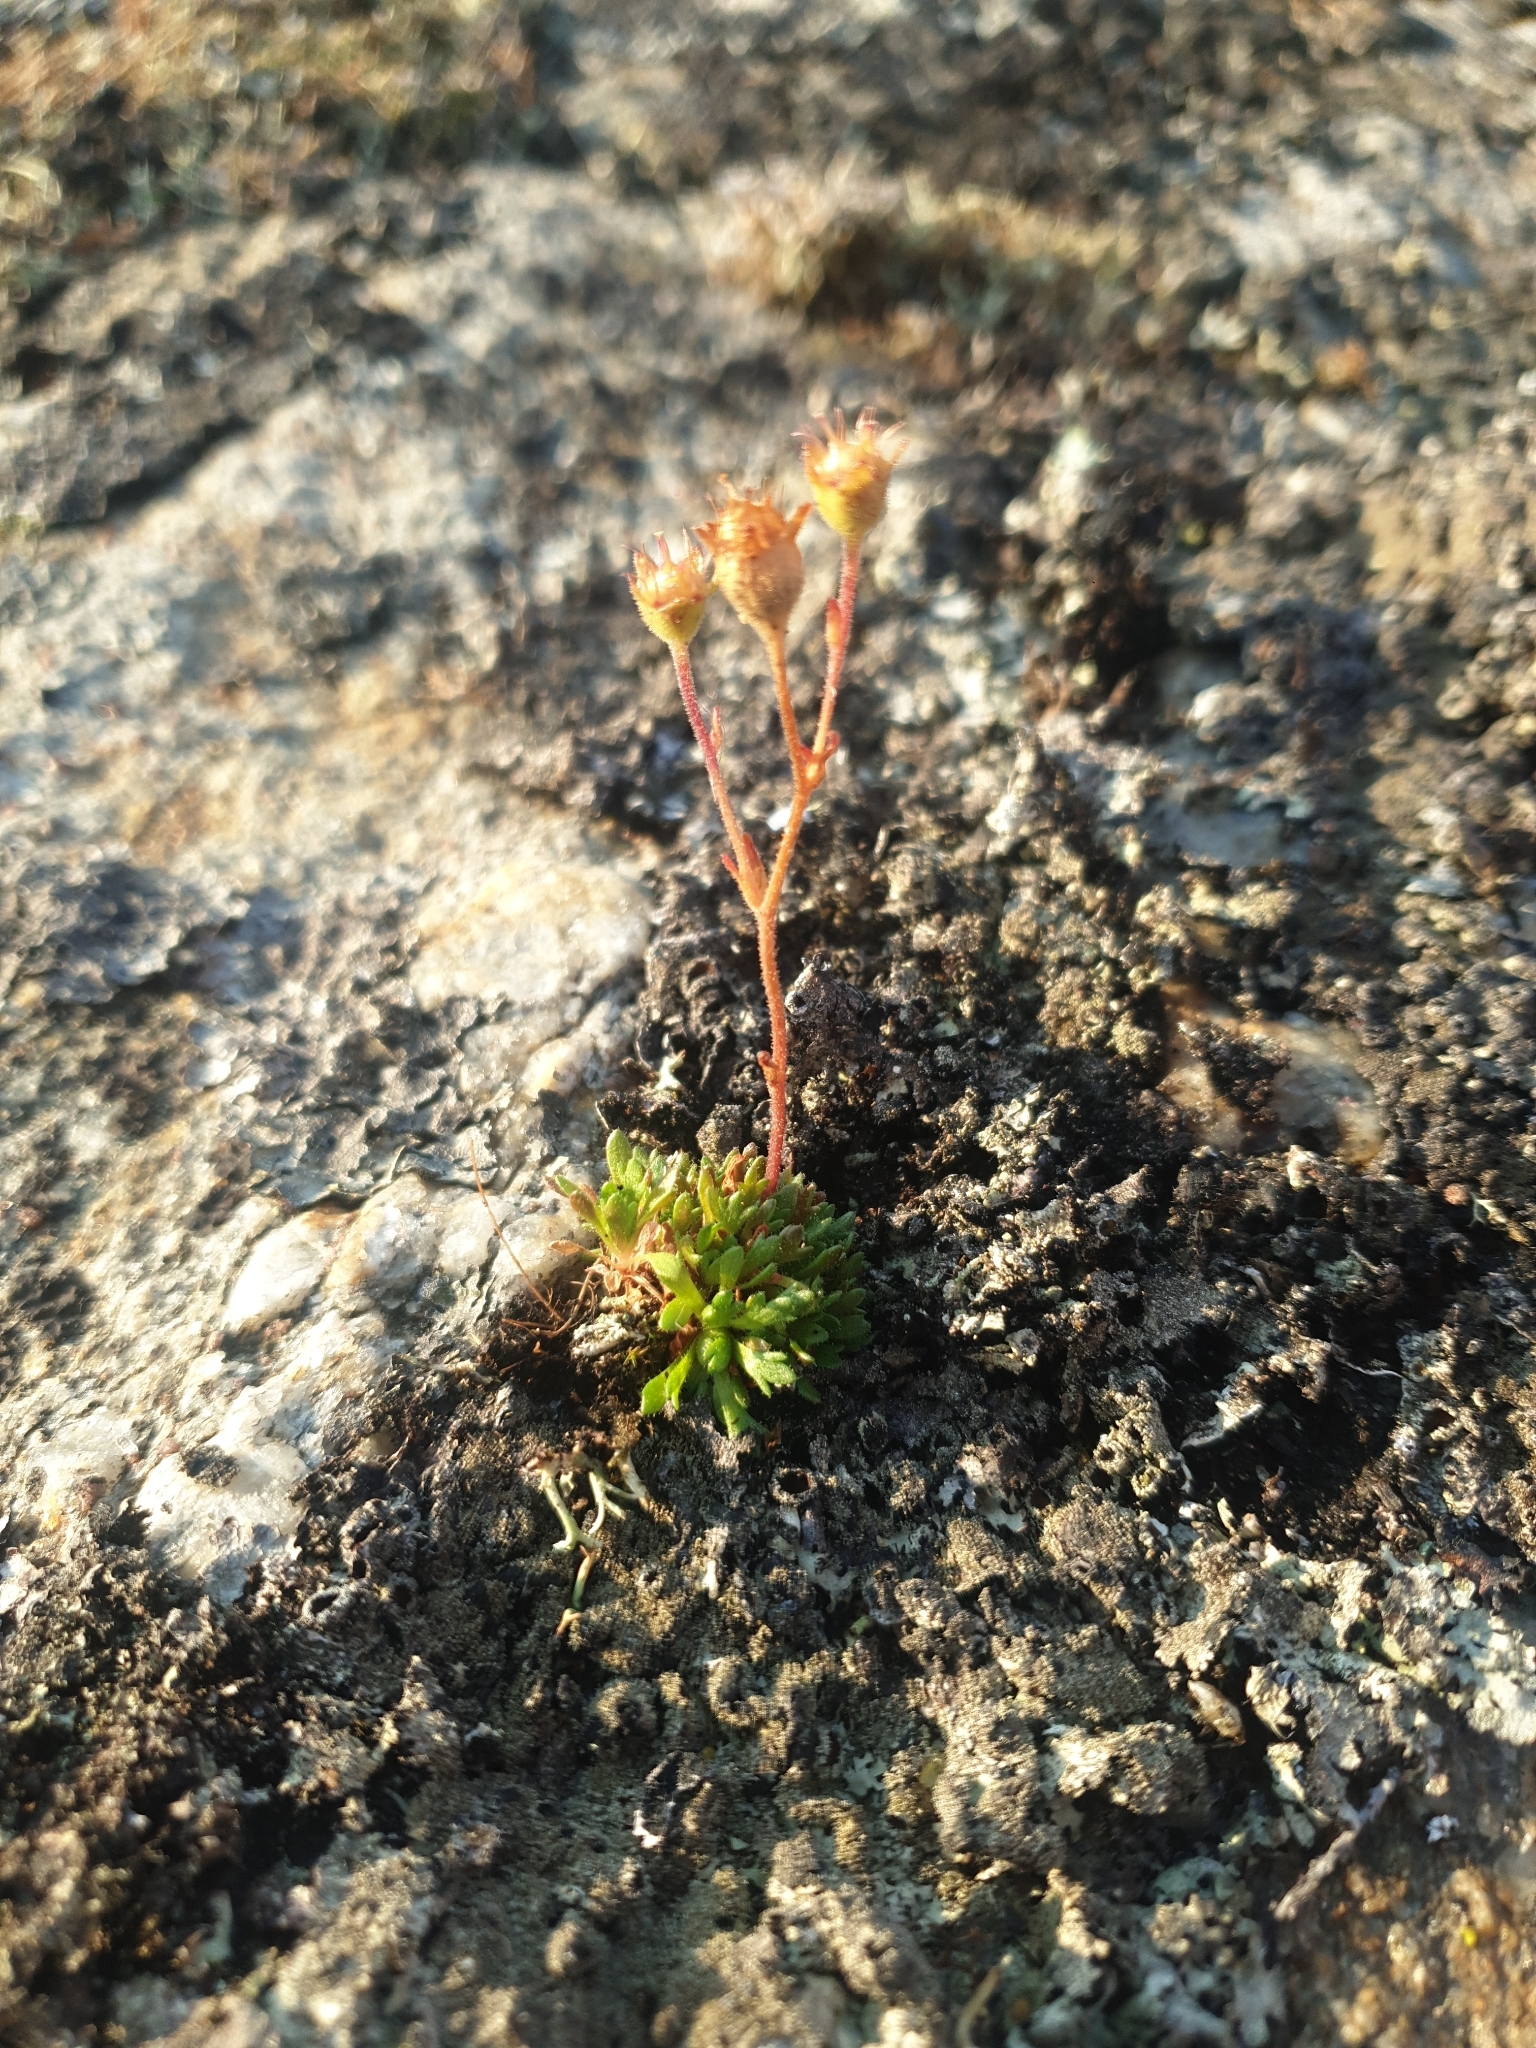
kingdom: Plantae
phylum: Tracheophyta
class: Magnoliopsida
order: Saxifragales
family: Saxifragaceae
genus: Saxifraga
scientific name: Saxifraga cespitosa
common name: Tufted saxifrage
